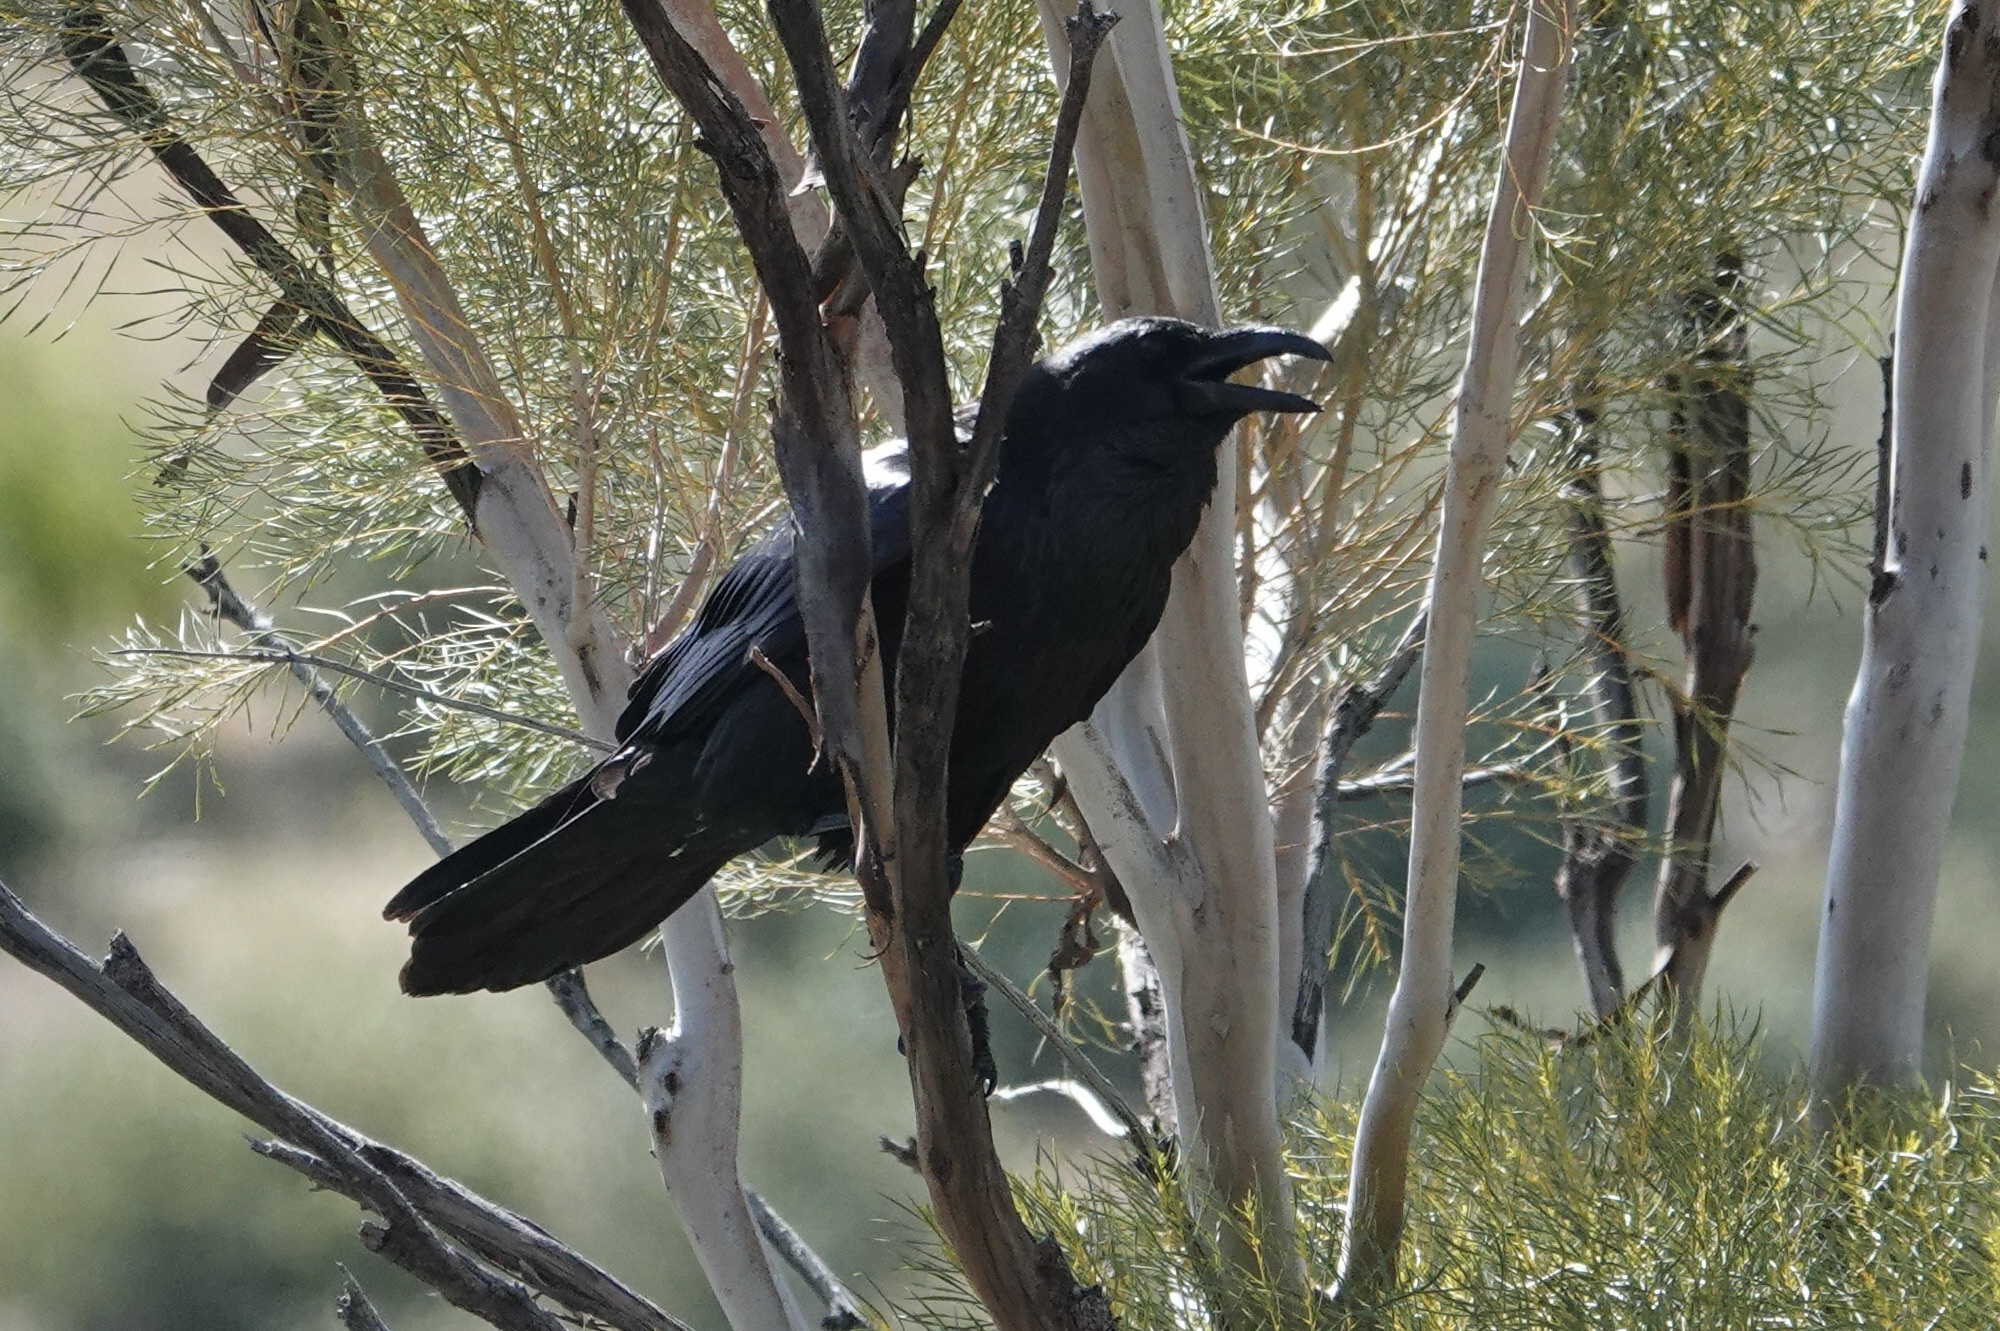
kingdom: Animalia
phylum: Chordata
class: Aves
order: Passeriformes
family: Corvidae
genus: Corvus
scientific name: Corvus corax
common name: Common raven
